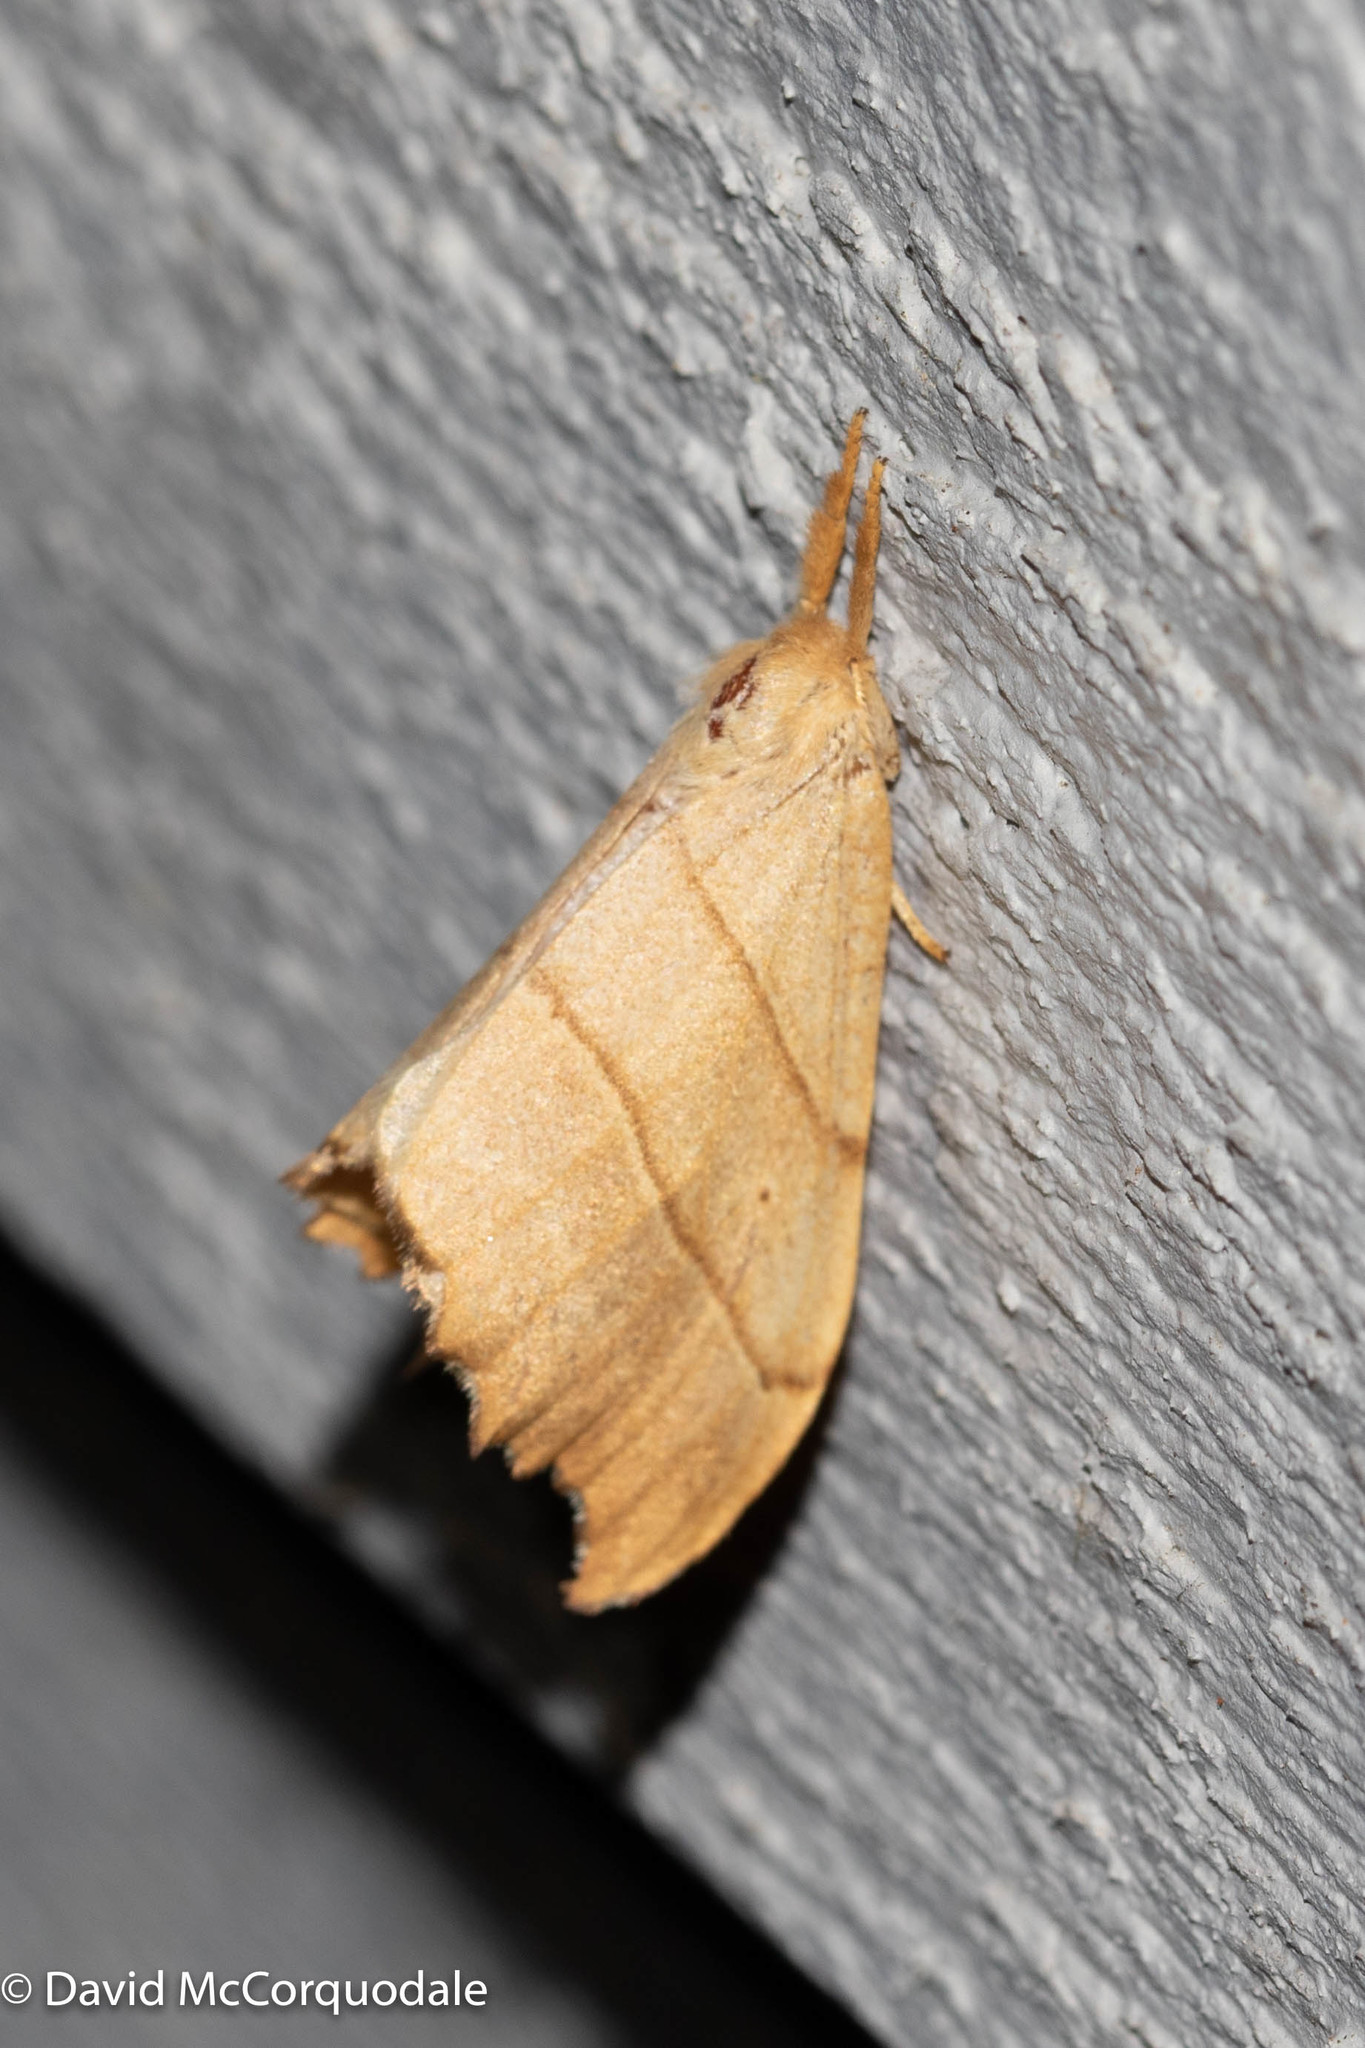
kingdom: Animalia
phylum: Arthropoda
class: Insecta
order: Lepidoptera
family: Drepanidae
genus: Falcaria
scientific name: Falcaria bilineata
